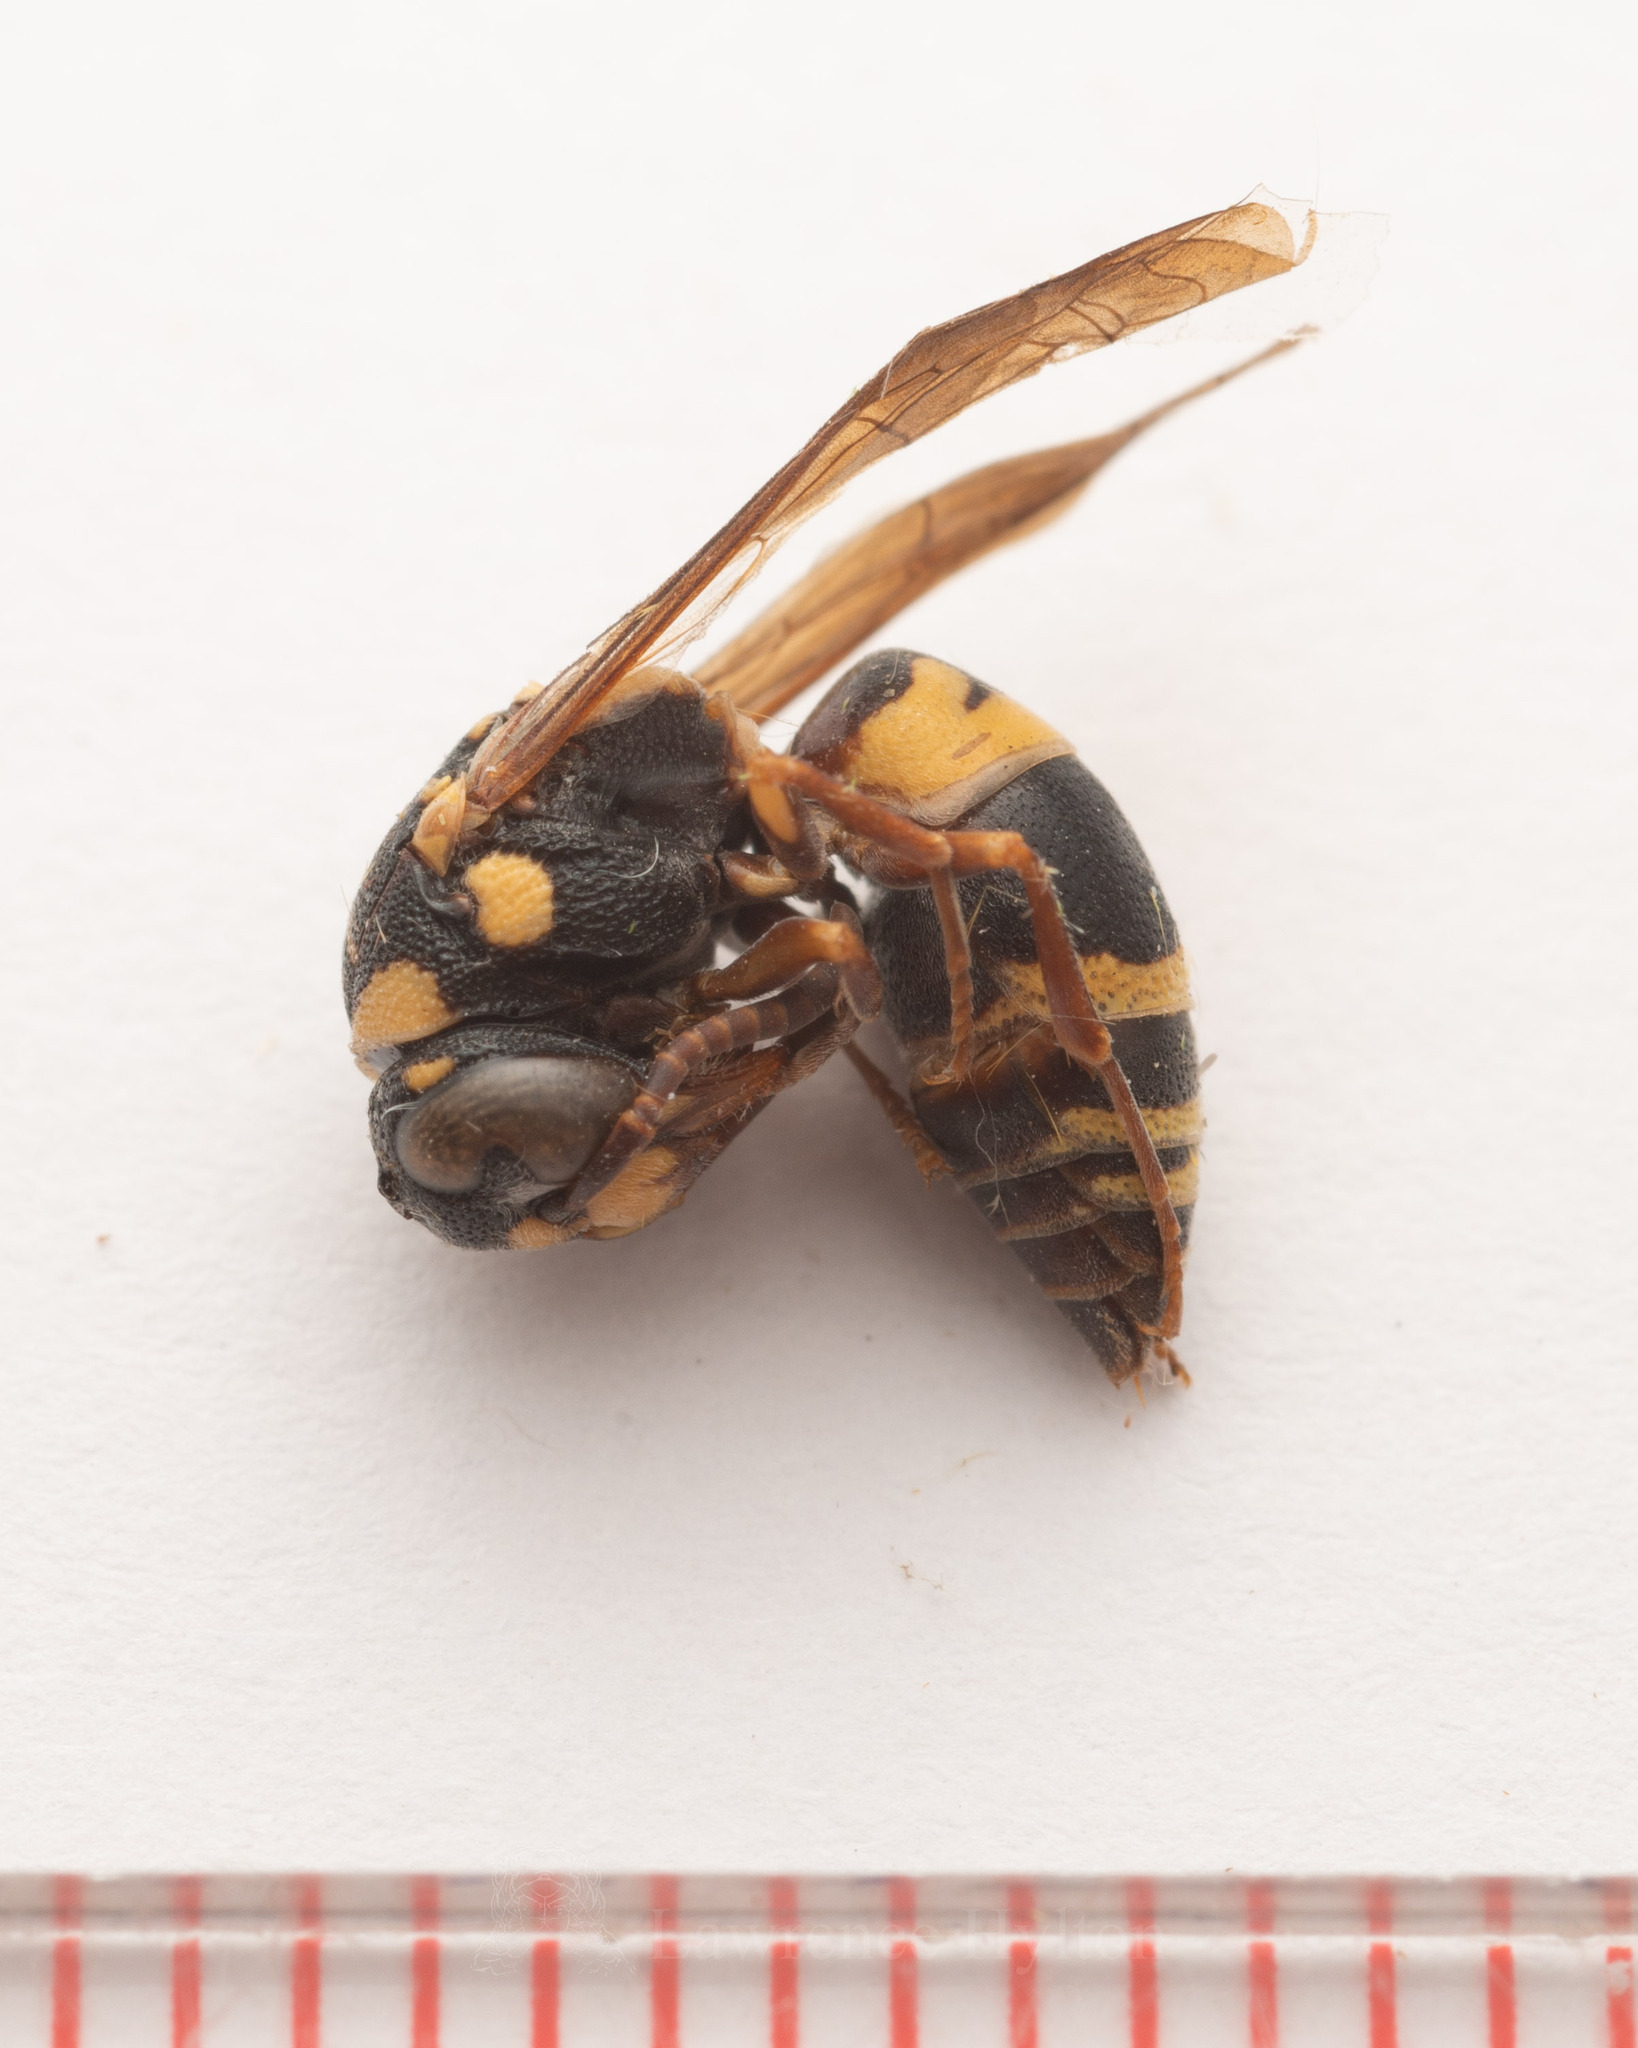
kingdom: Animalia
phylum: Arthropoda
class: Insecta
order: Hymenoptera
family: Eumenidae
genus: Euodynerus
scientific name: Euodynerus trilobus
